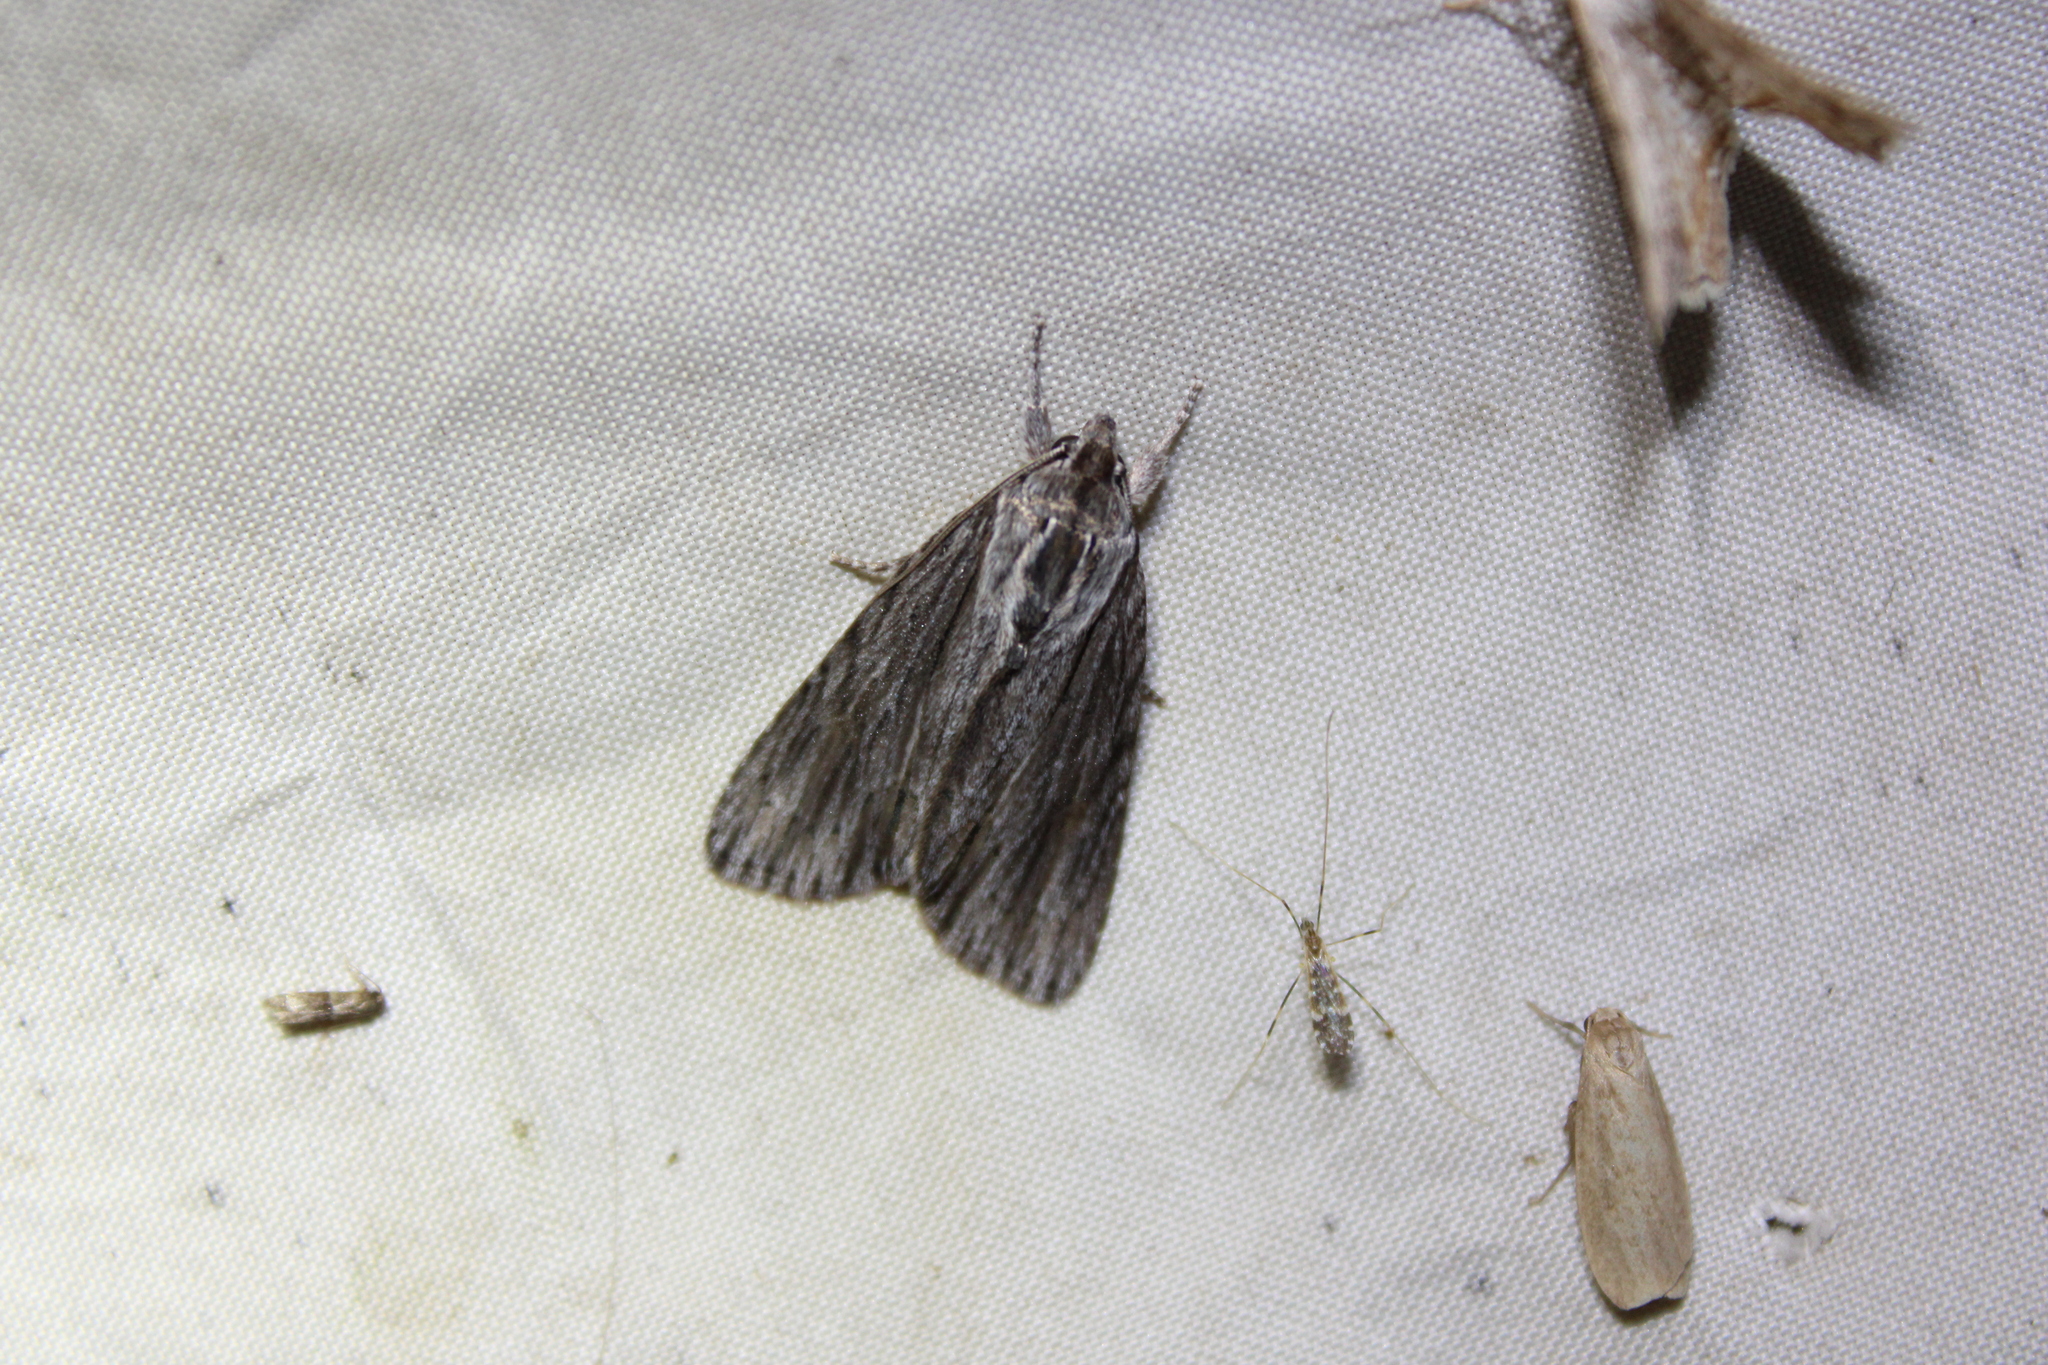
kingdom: Animalia
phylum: Arthropoda
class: Insecta
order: Lepidoptera
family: Noctuidae
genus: Acronicta
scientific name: Acronicta lithospila
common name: Streaked dagger
